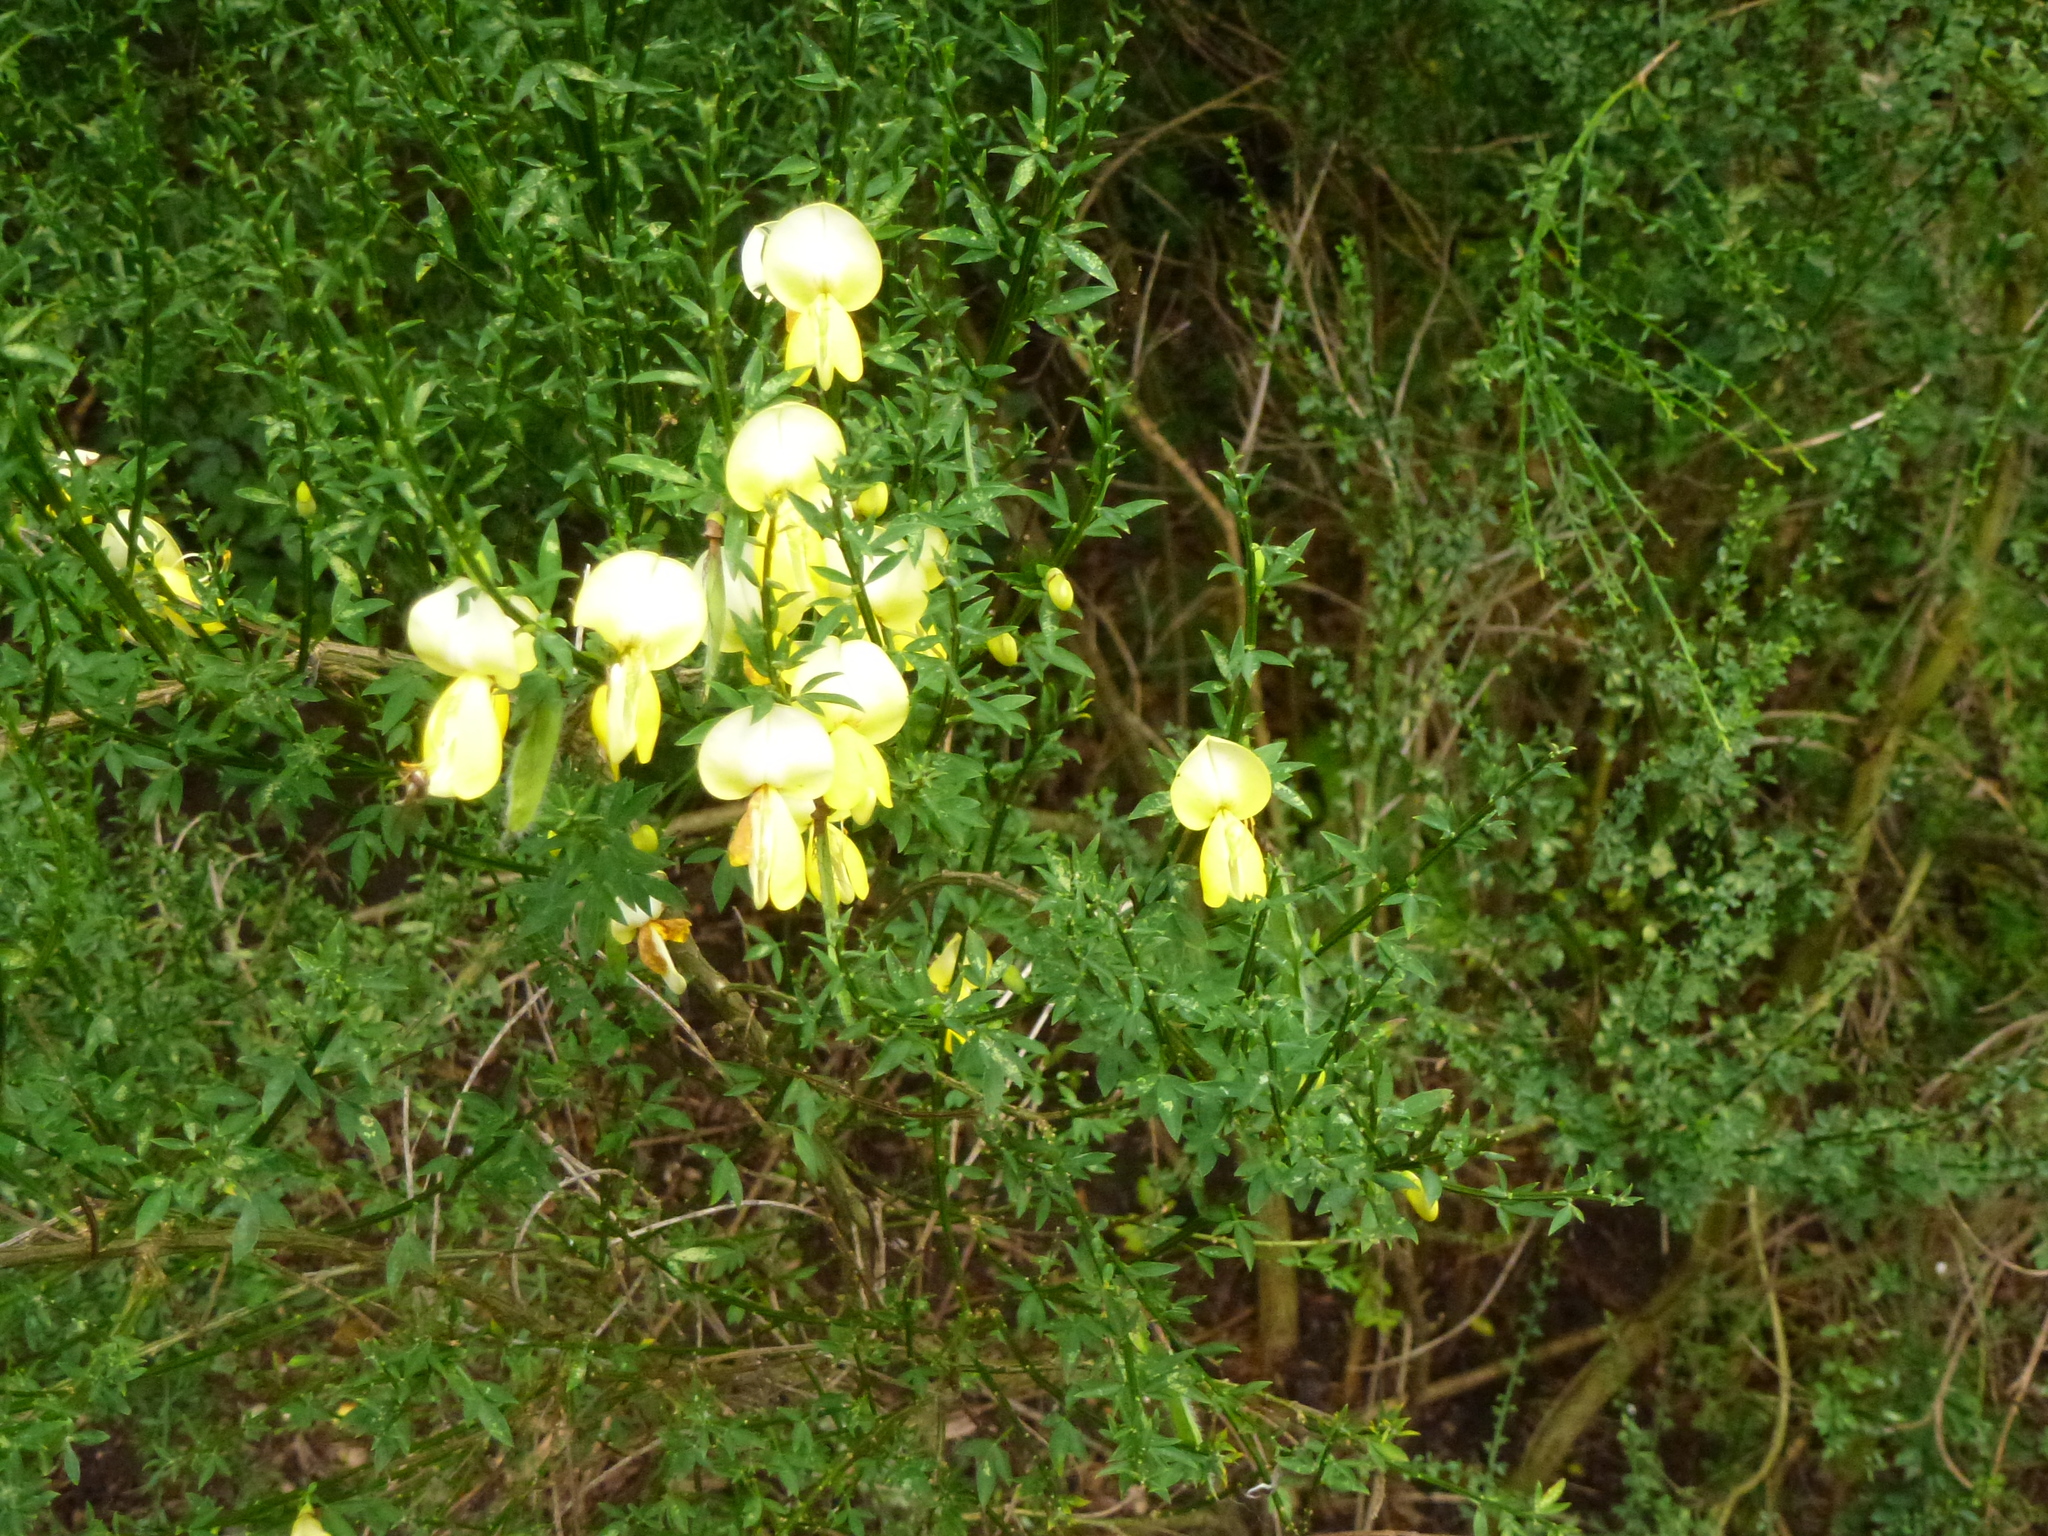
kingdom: Plantae
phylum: Tracheophyta
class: Magnoliopsida
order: Fabales
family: Fabaceae
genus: Cytisus
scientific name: Cytisus scoparius
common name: Scotch broom
